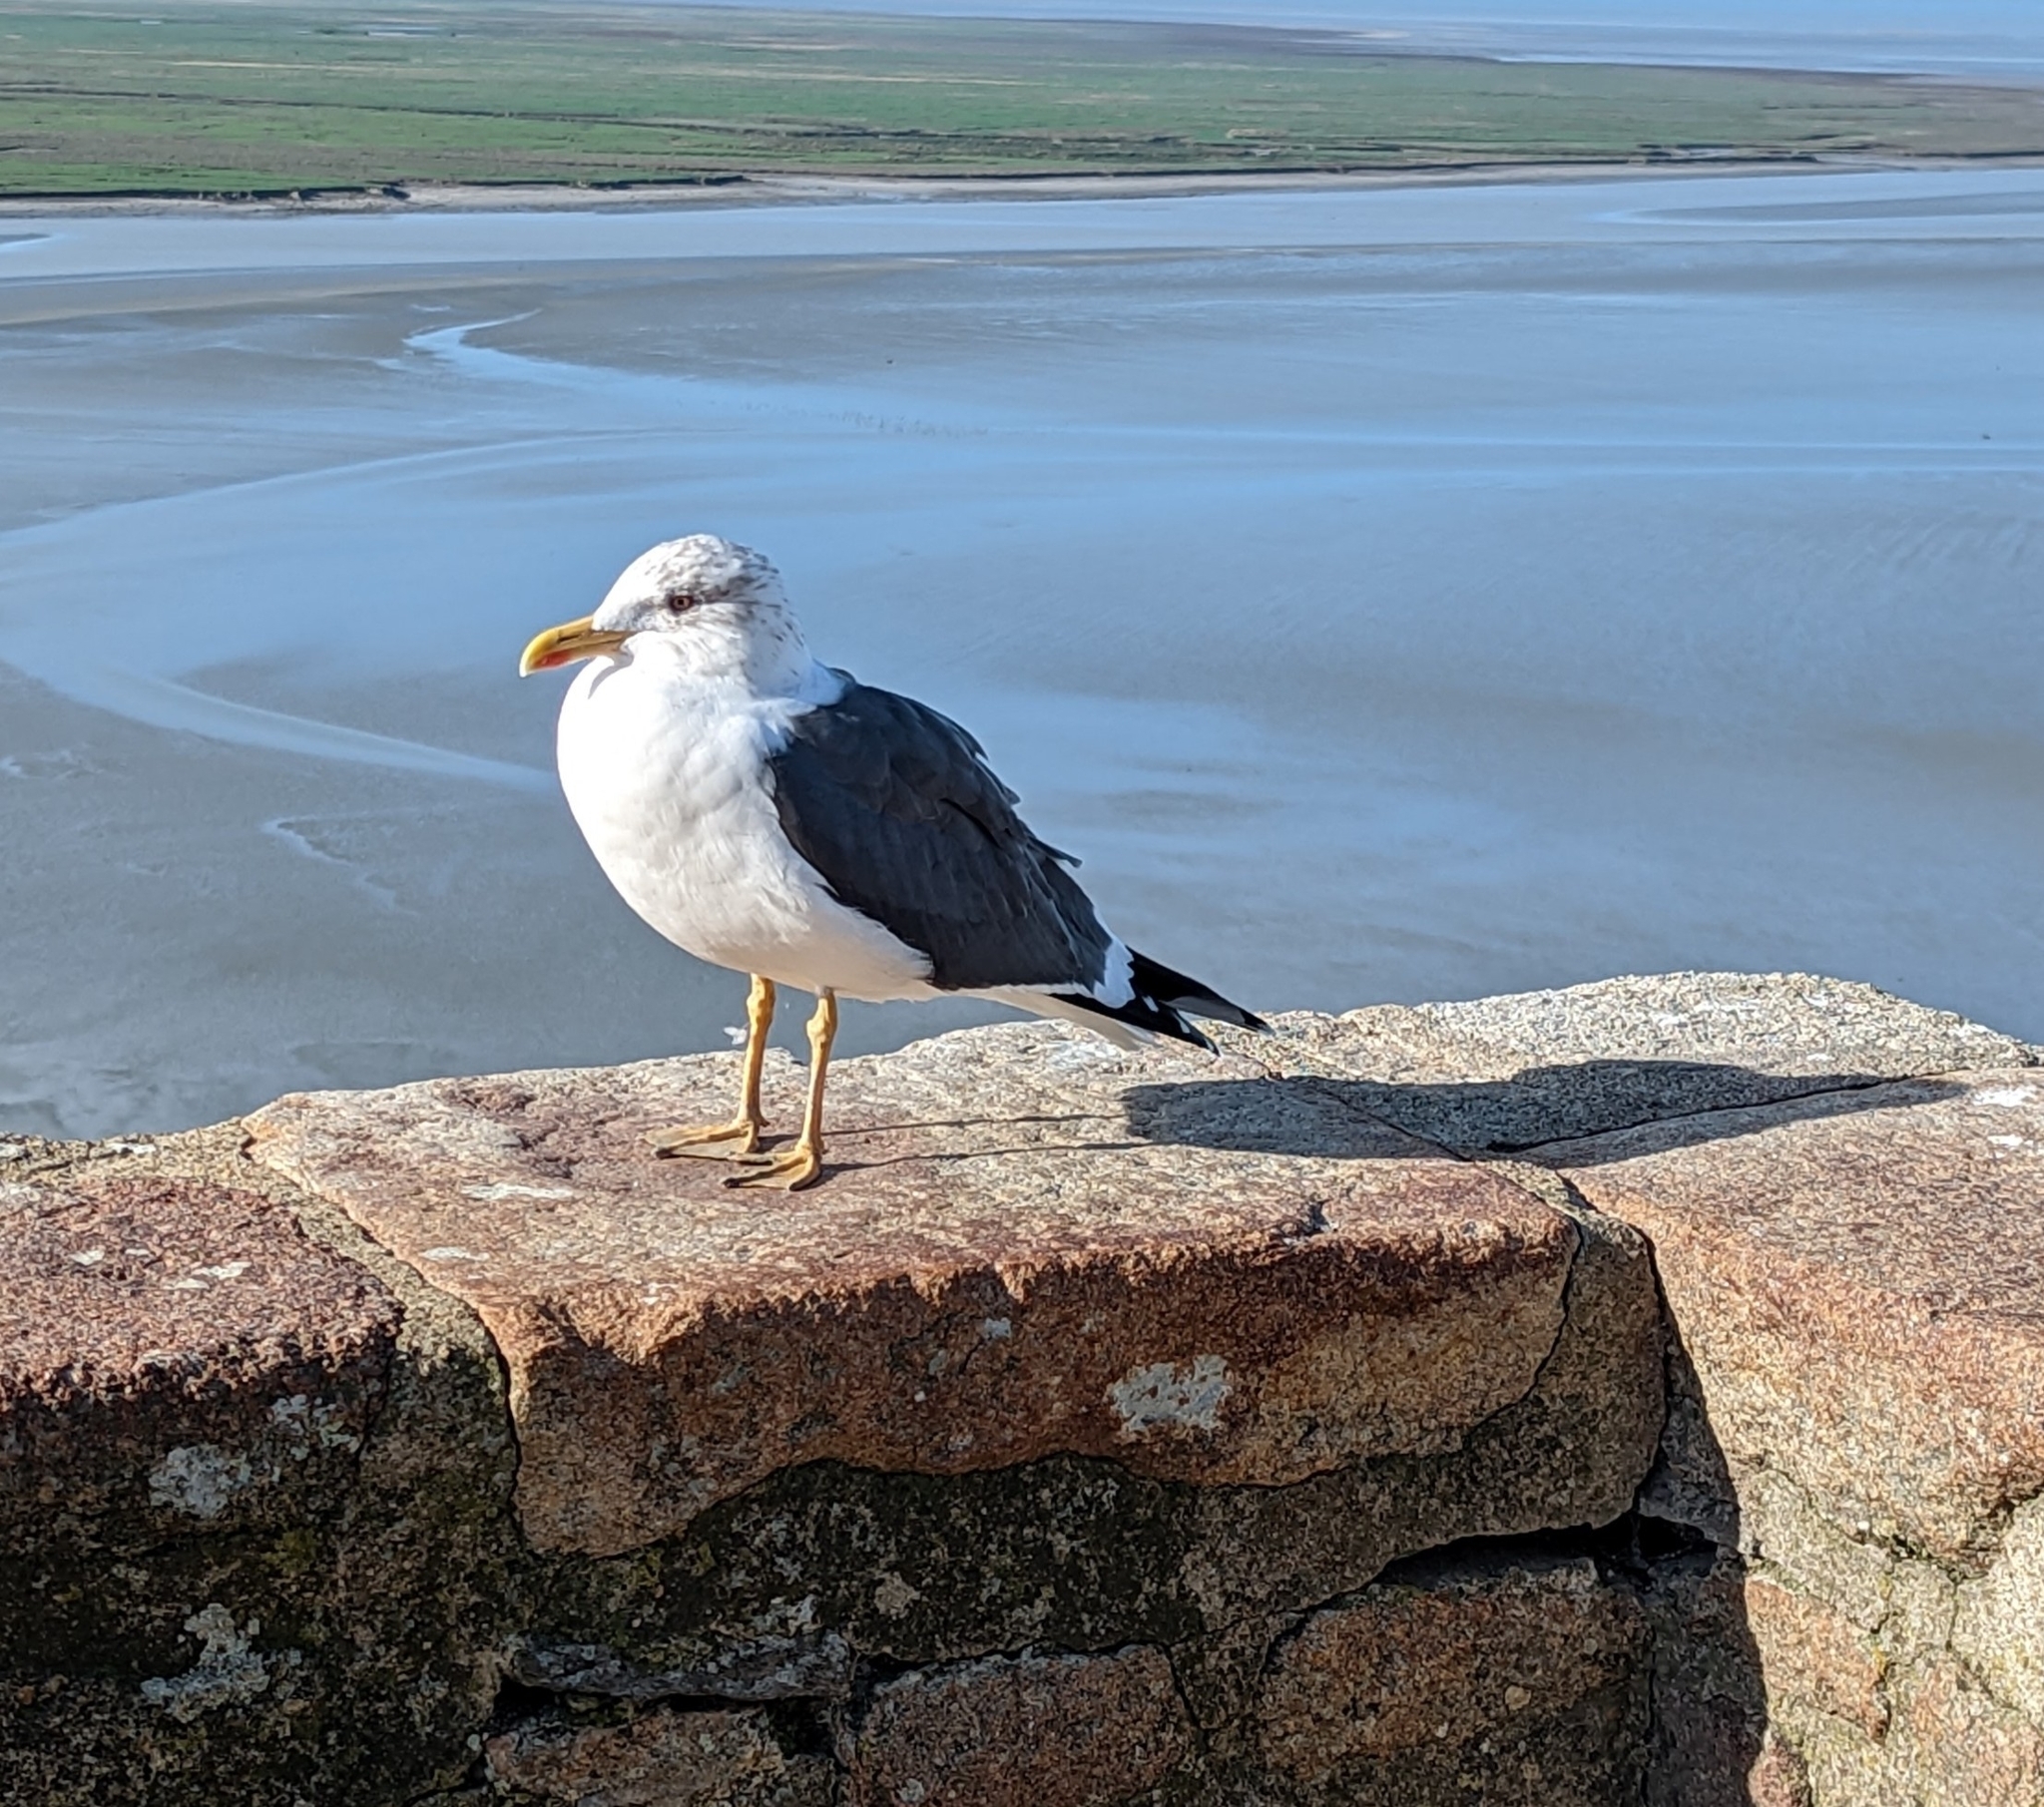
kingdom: Animalia
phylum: Chordata
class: Aves
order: Charadriiformes
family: Laridae
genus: Larus
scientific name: Larus fuscus
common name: Lesser black-backed gull
